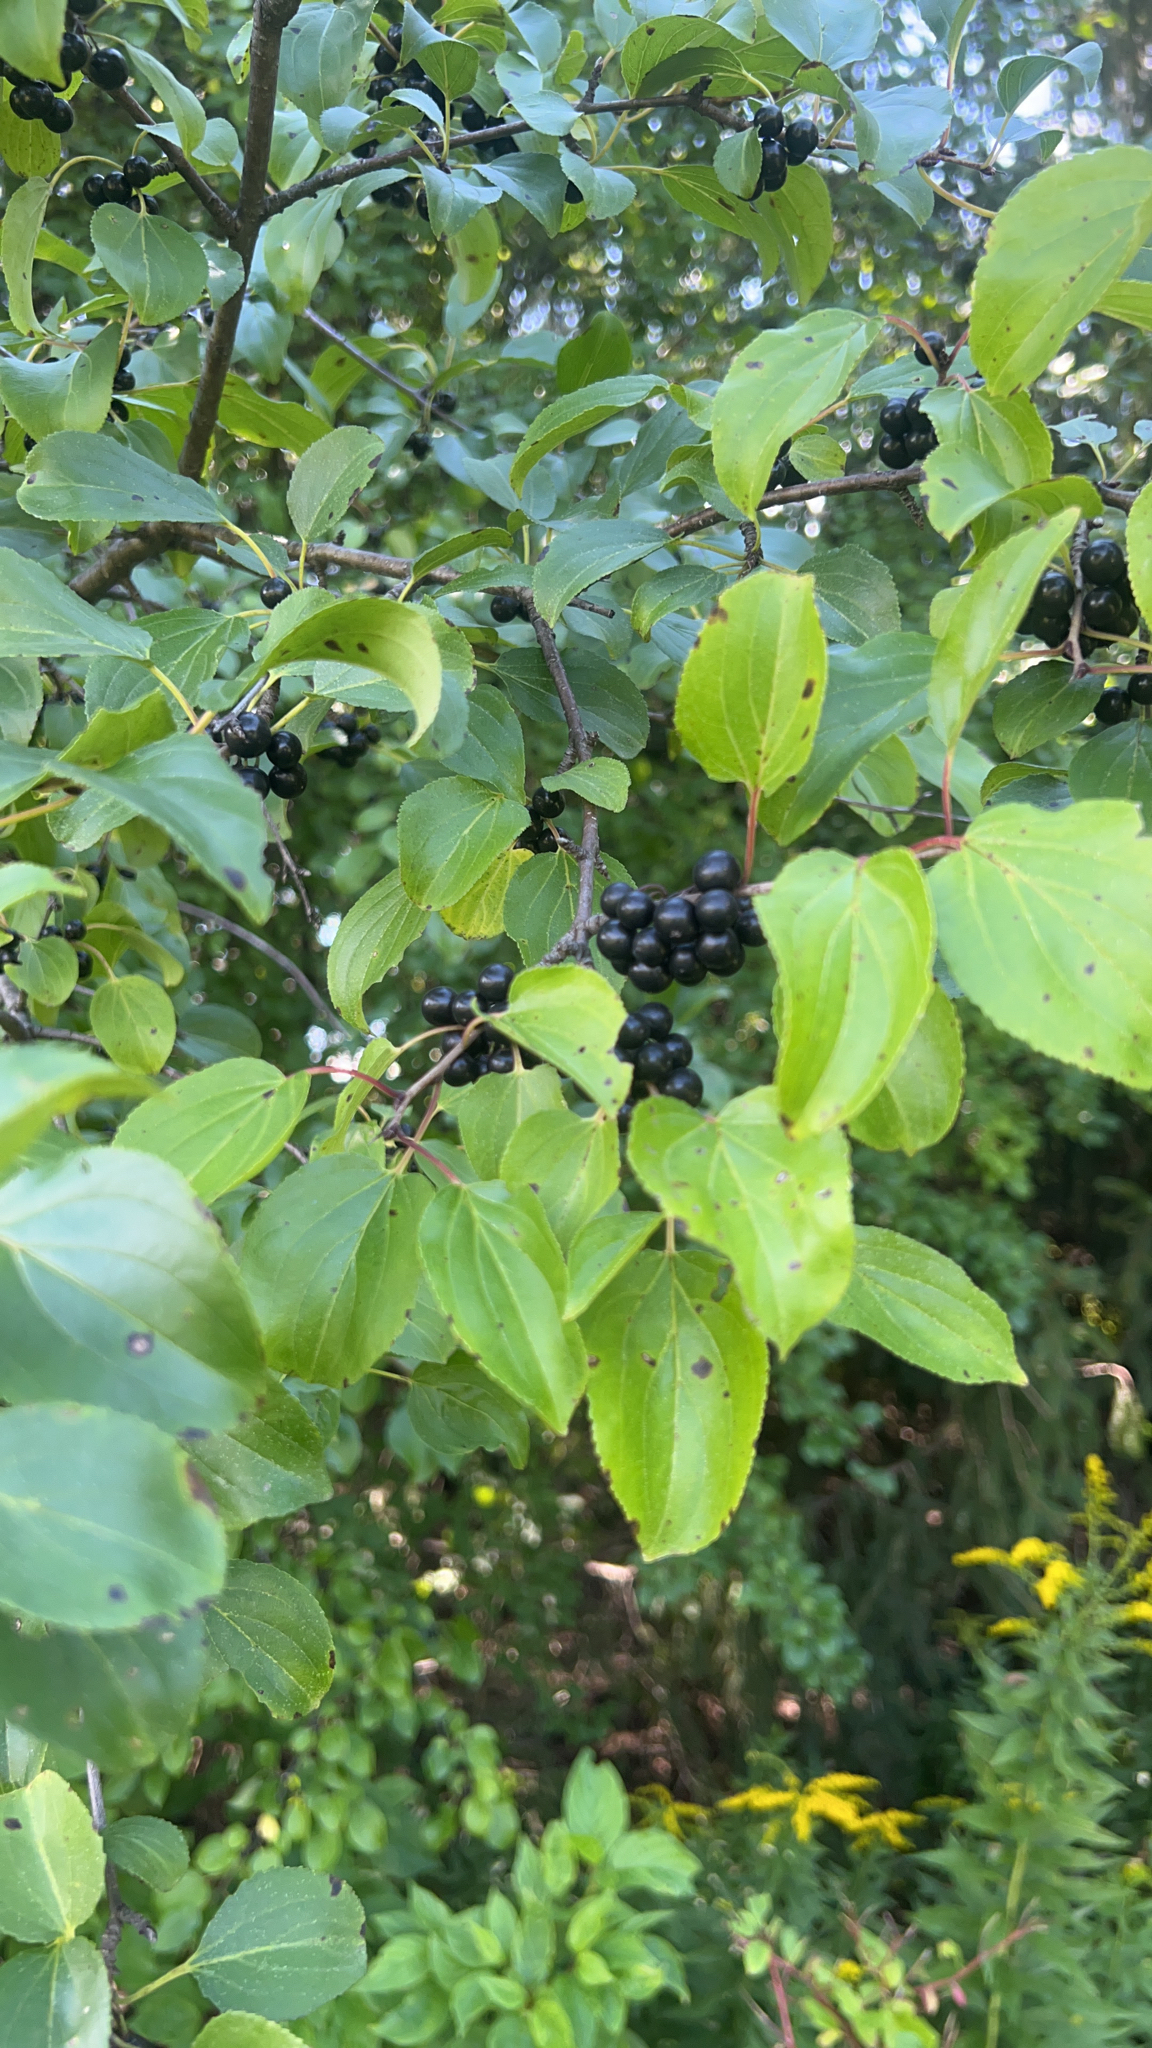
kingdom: Plantae
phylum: Tracheophyta
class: Magnoliopsida
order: Rosales
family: Rhamnaceae
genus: Rhamnus
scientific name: Rhamnus cathartica
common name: Common buckthorn
